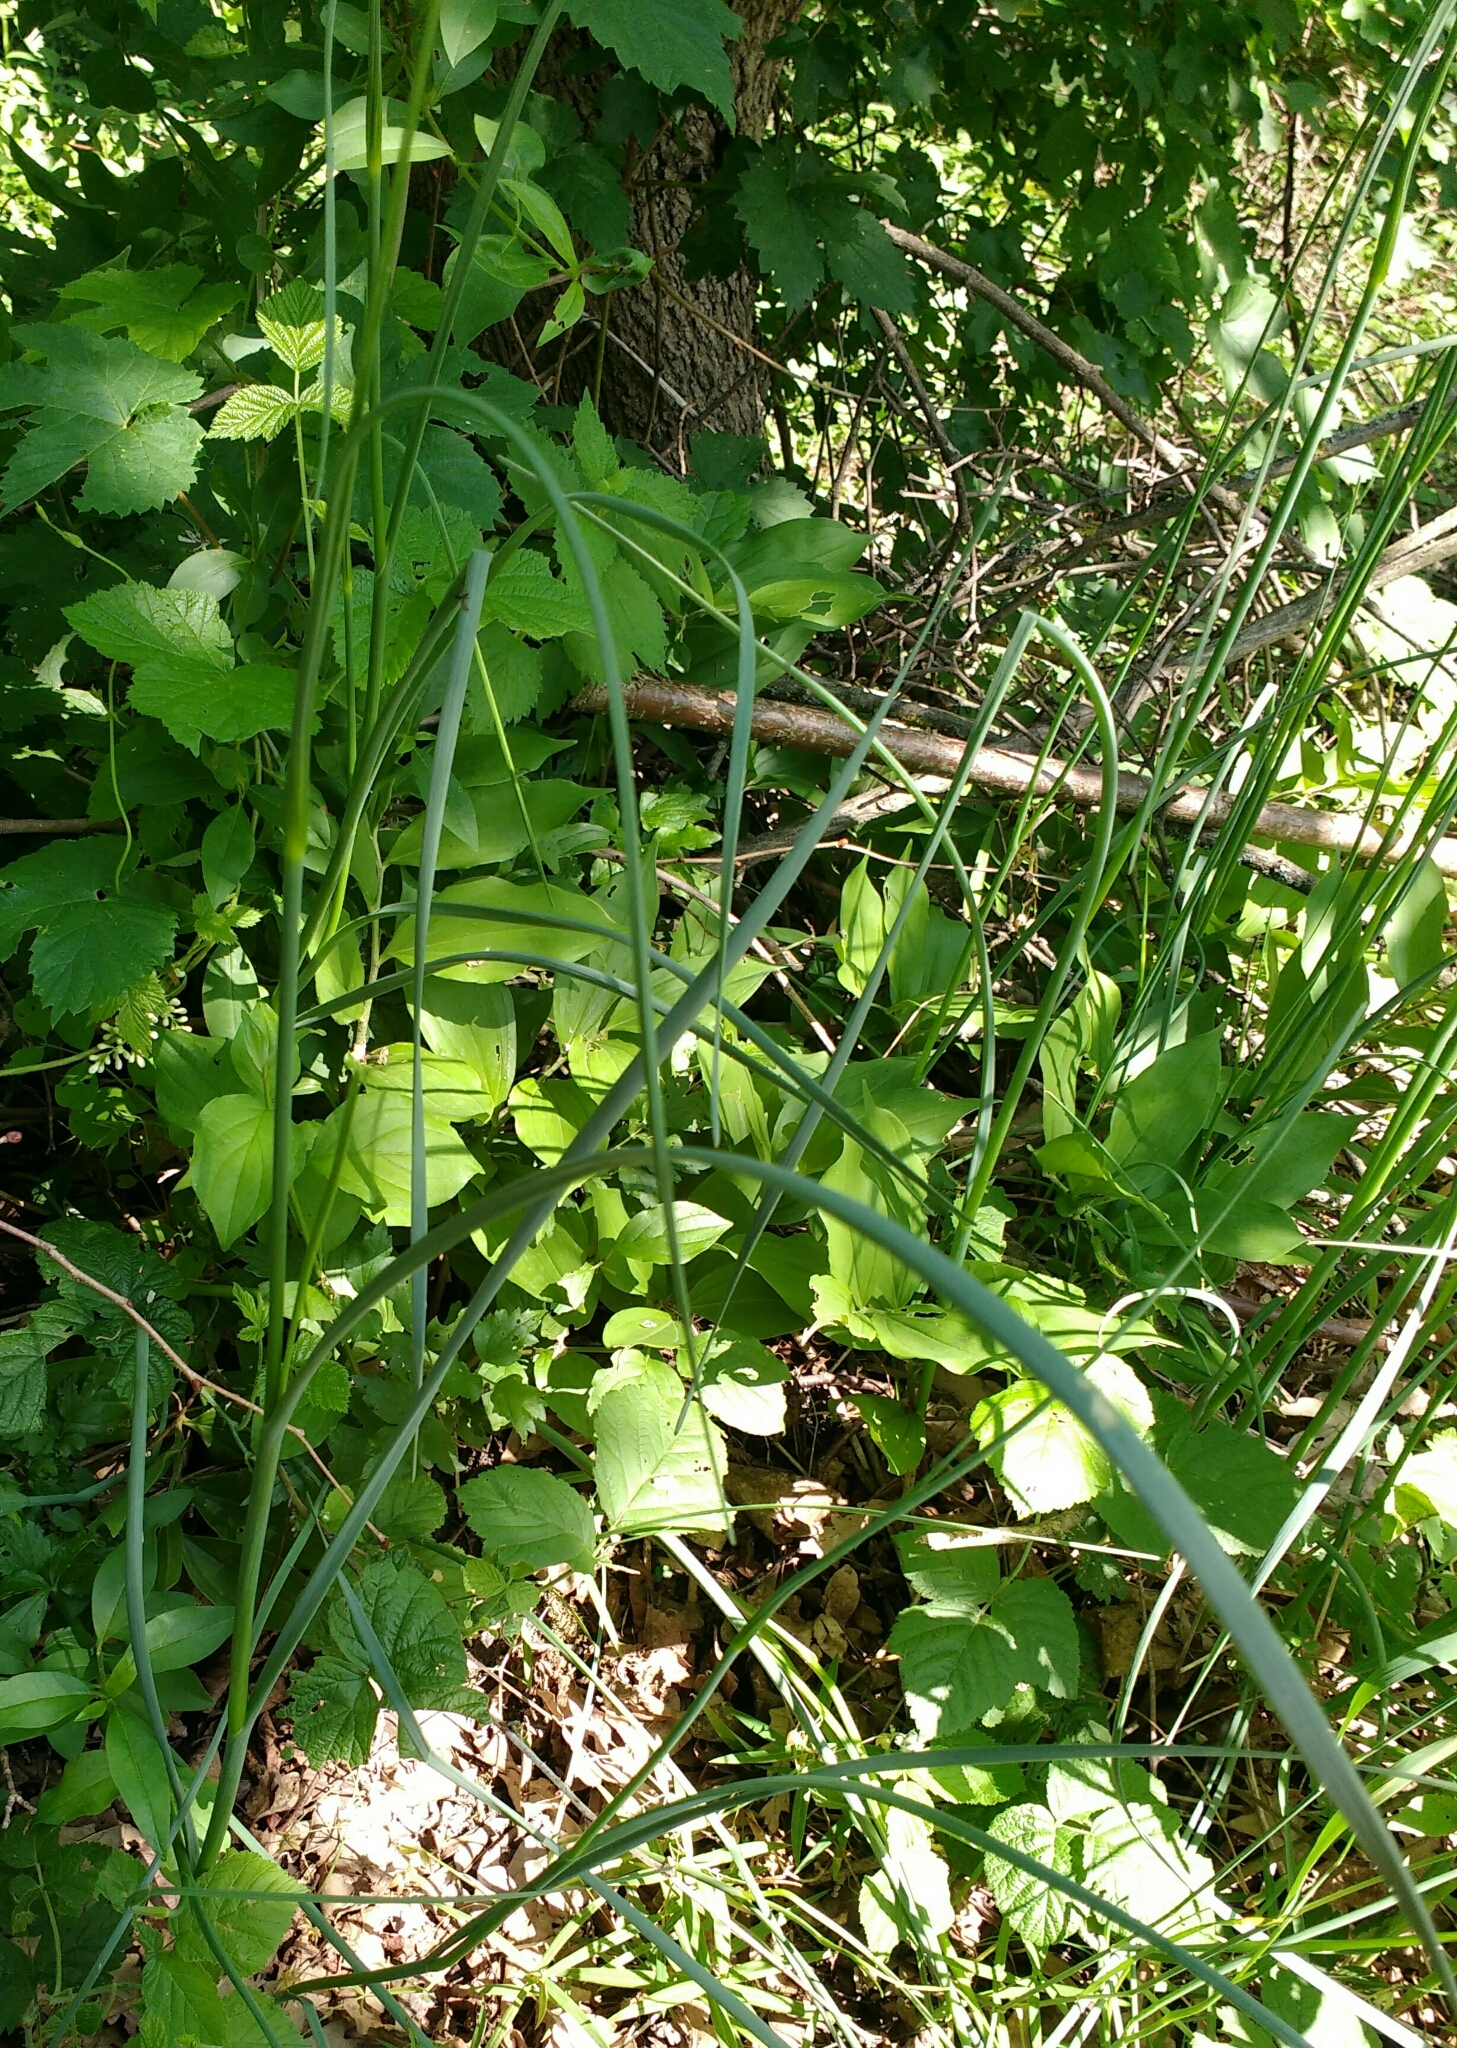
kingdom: Plantae
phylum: Tracheophyta
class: Liliopsida
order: Asparagales
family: Amaryllidaceae
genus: Allium
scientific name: Allium oleraceum
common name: Field garlic
